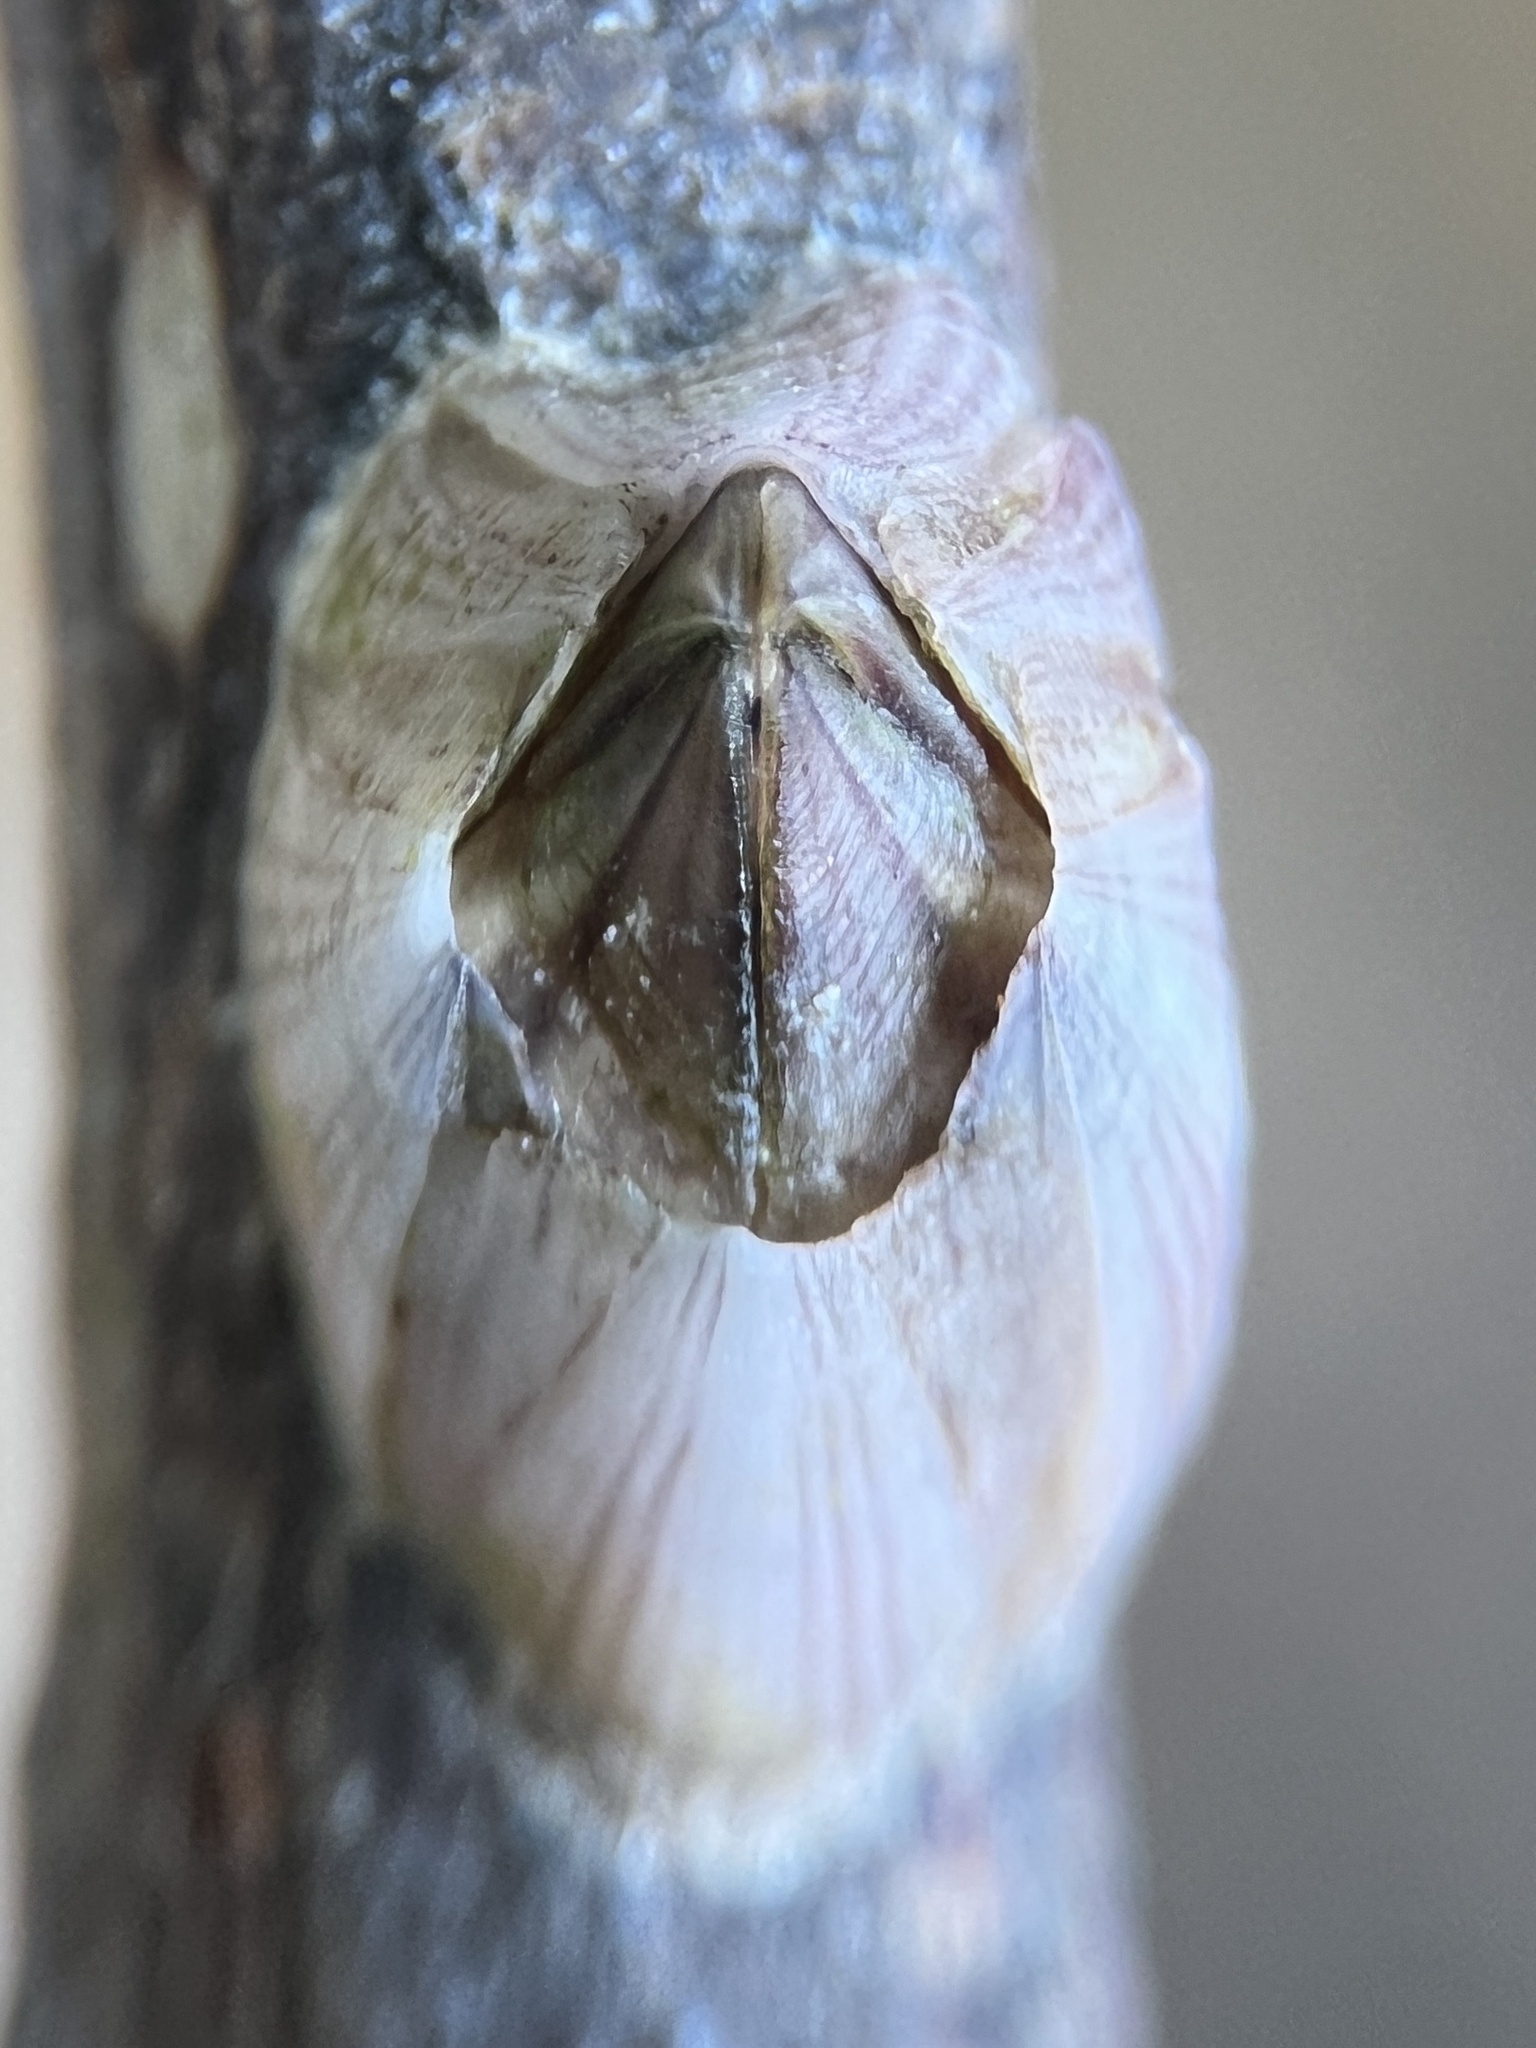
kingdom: Animalia
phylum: Arthropoda
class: Maxillopoda
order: Sessilia
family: Balanidae
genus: Amphibalanus
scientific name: Amphibalanus amphitrite
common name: Striped acorn barnacle
